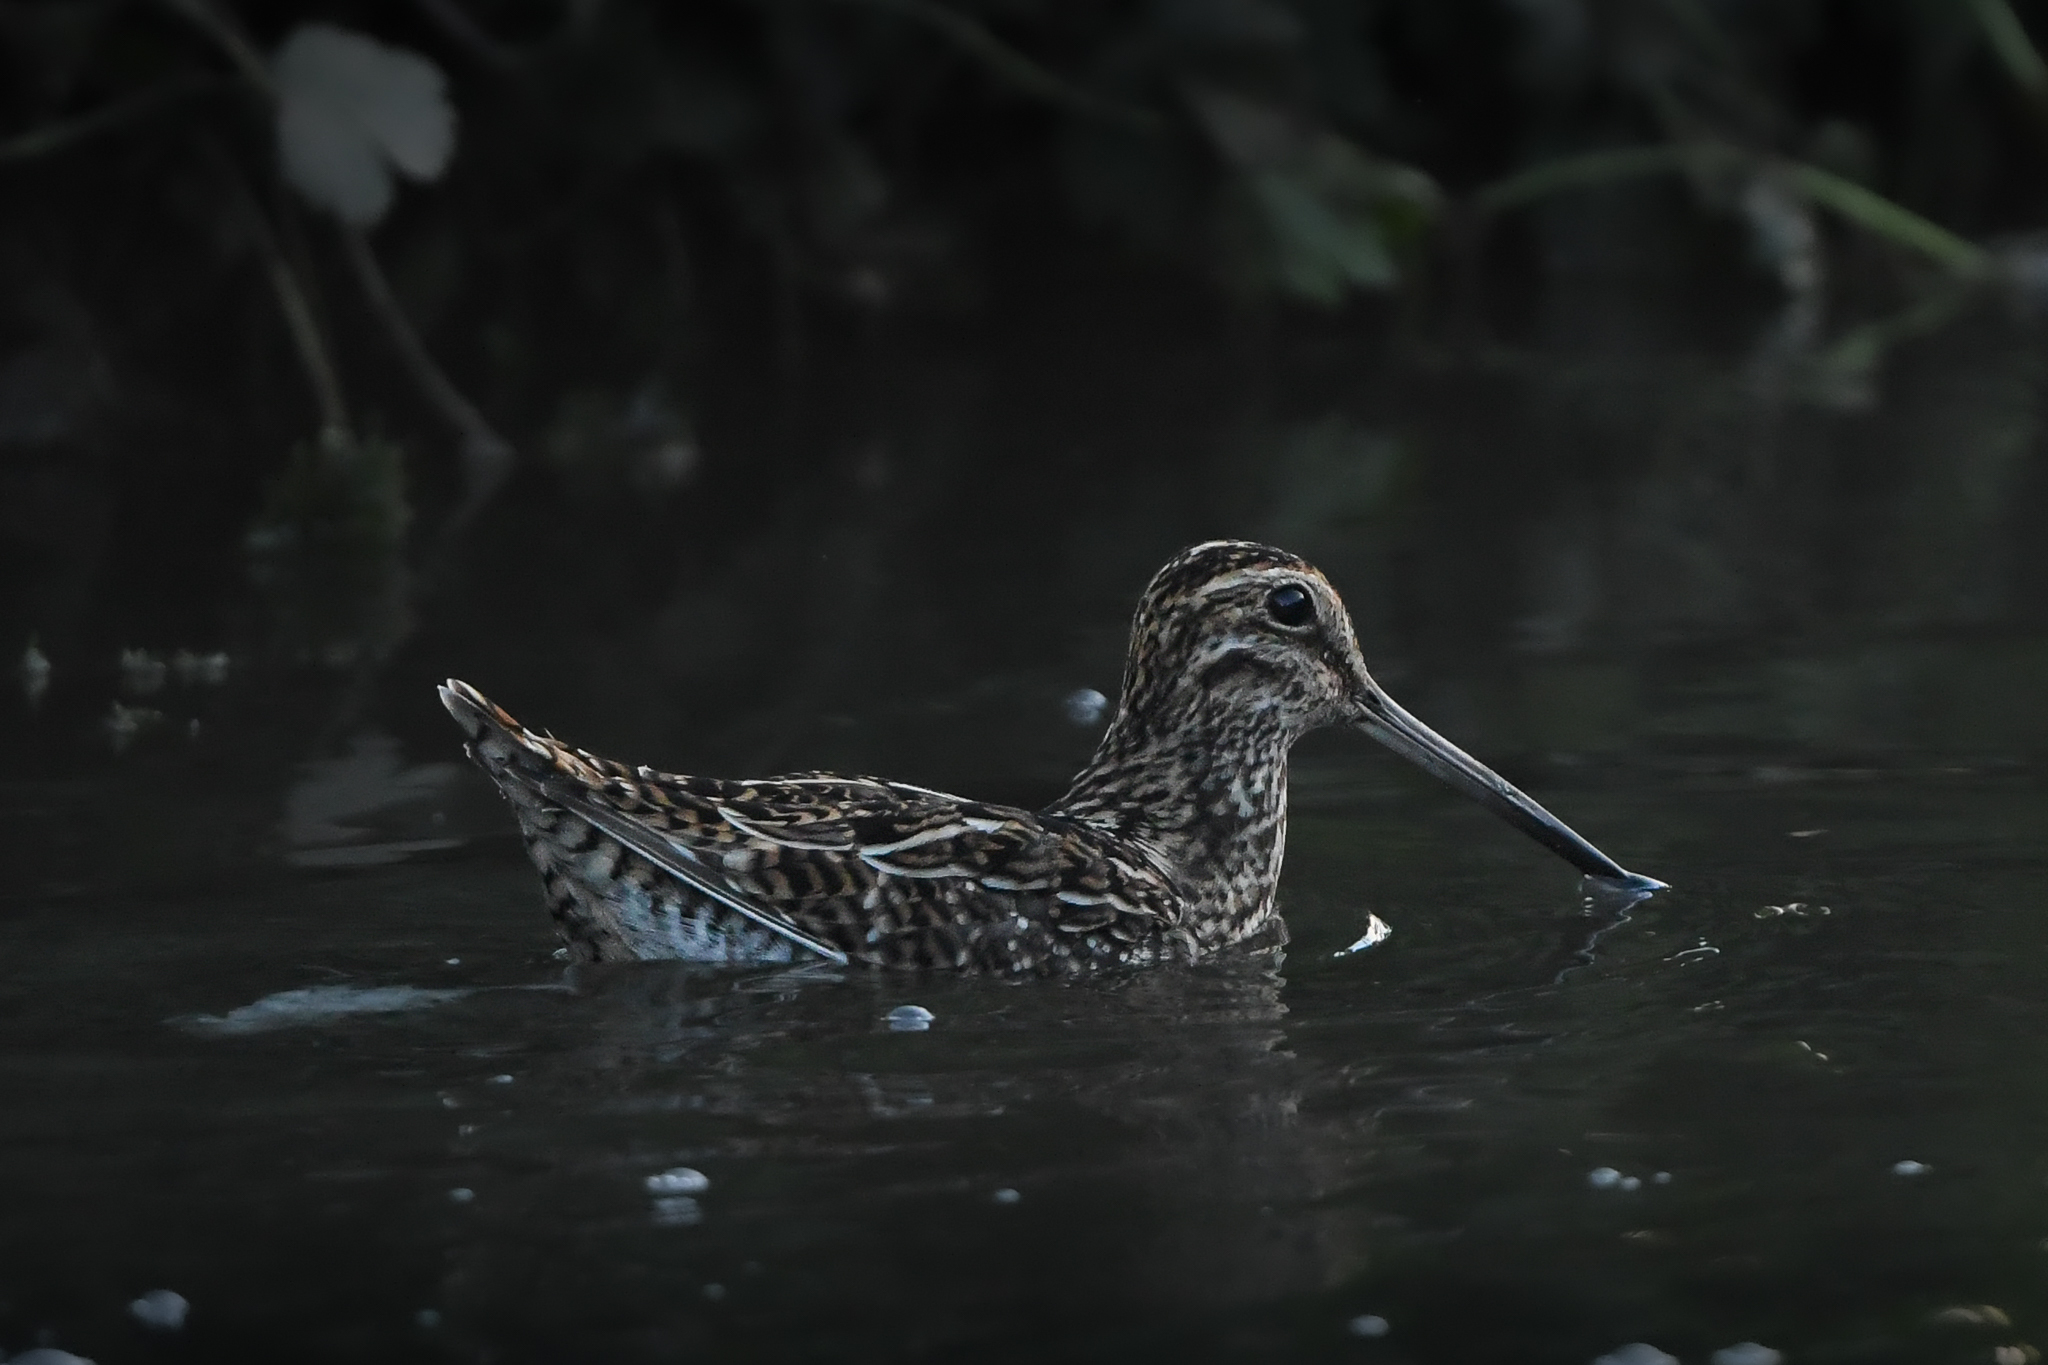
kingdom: Animalia
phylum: Chordata
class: Aves
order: Charadriiformes
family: Scolopacidae
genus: Gallinago
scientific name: Gallinago magellanica
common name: Magellanic snipe
